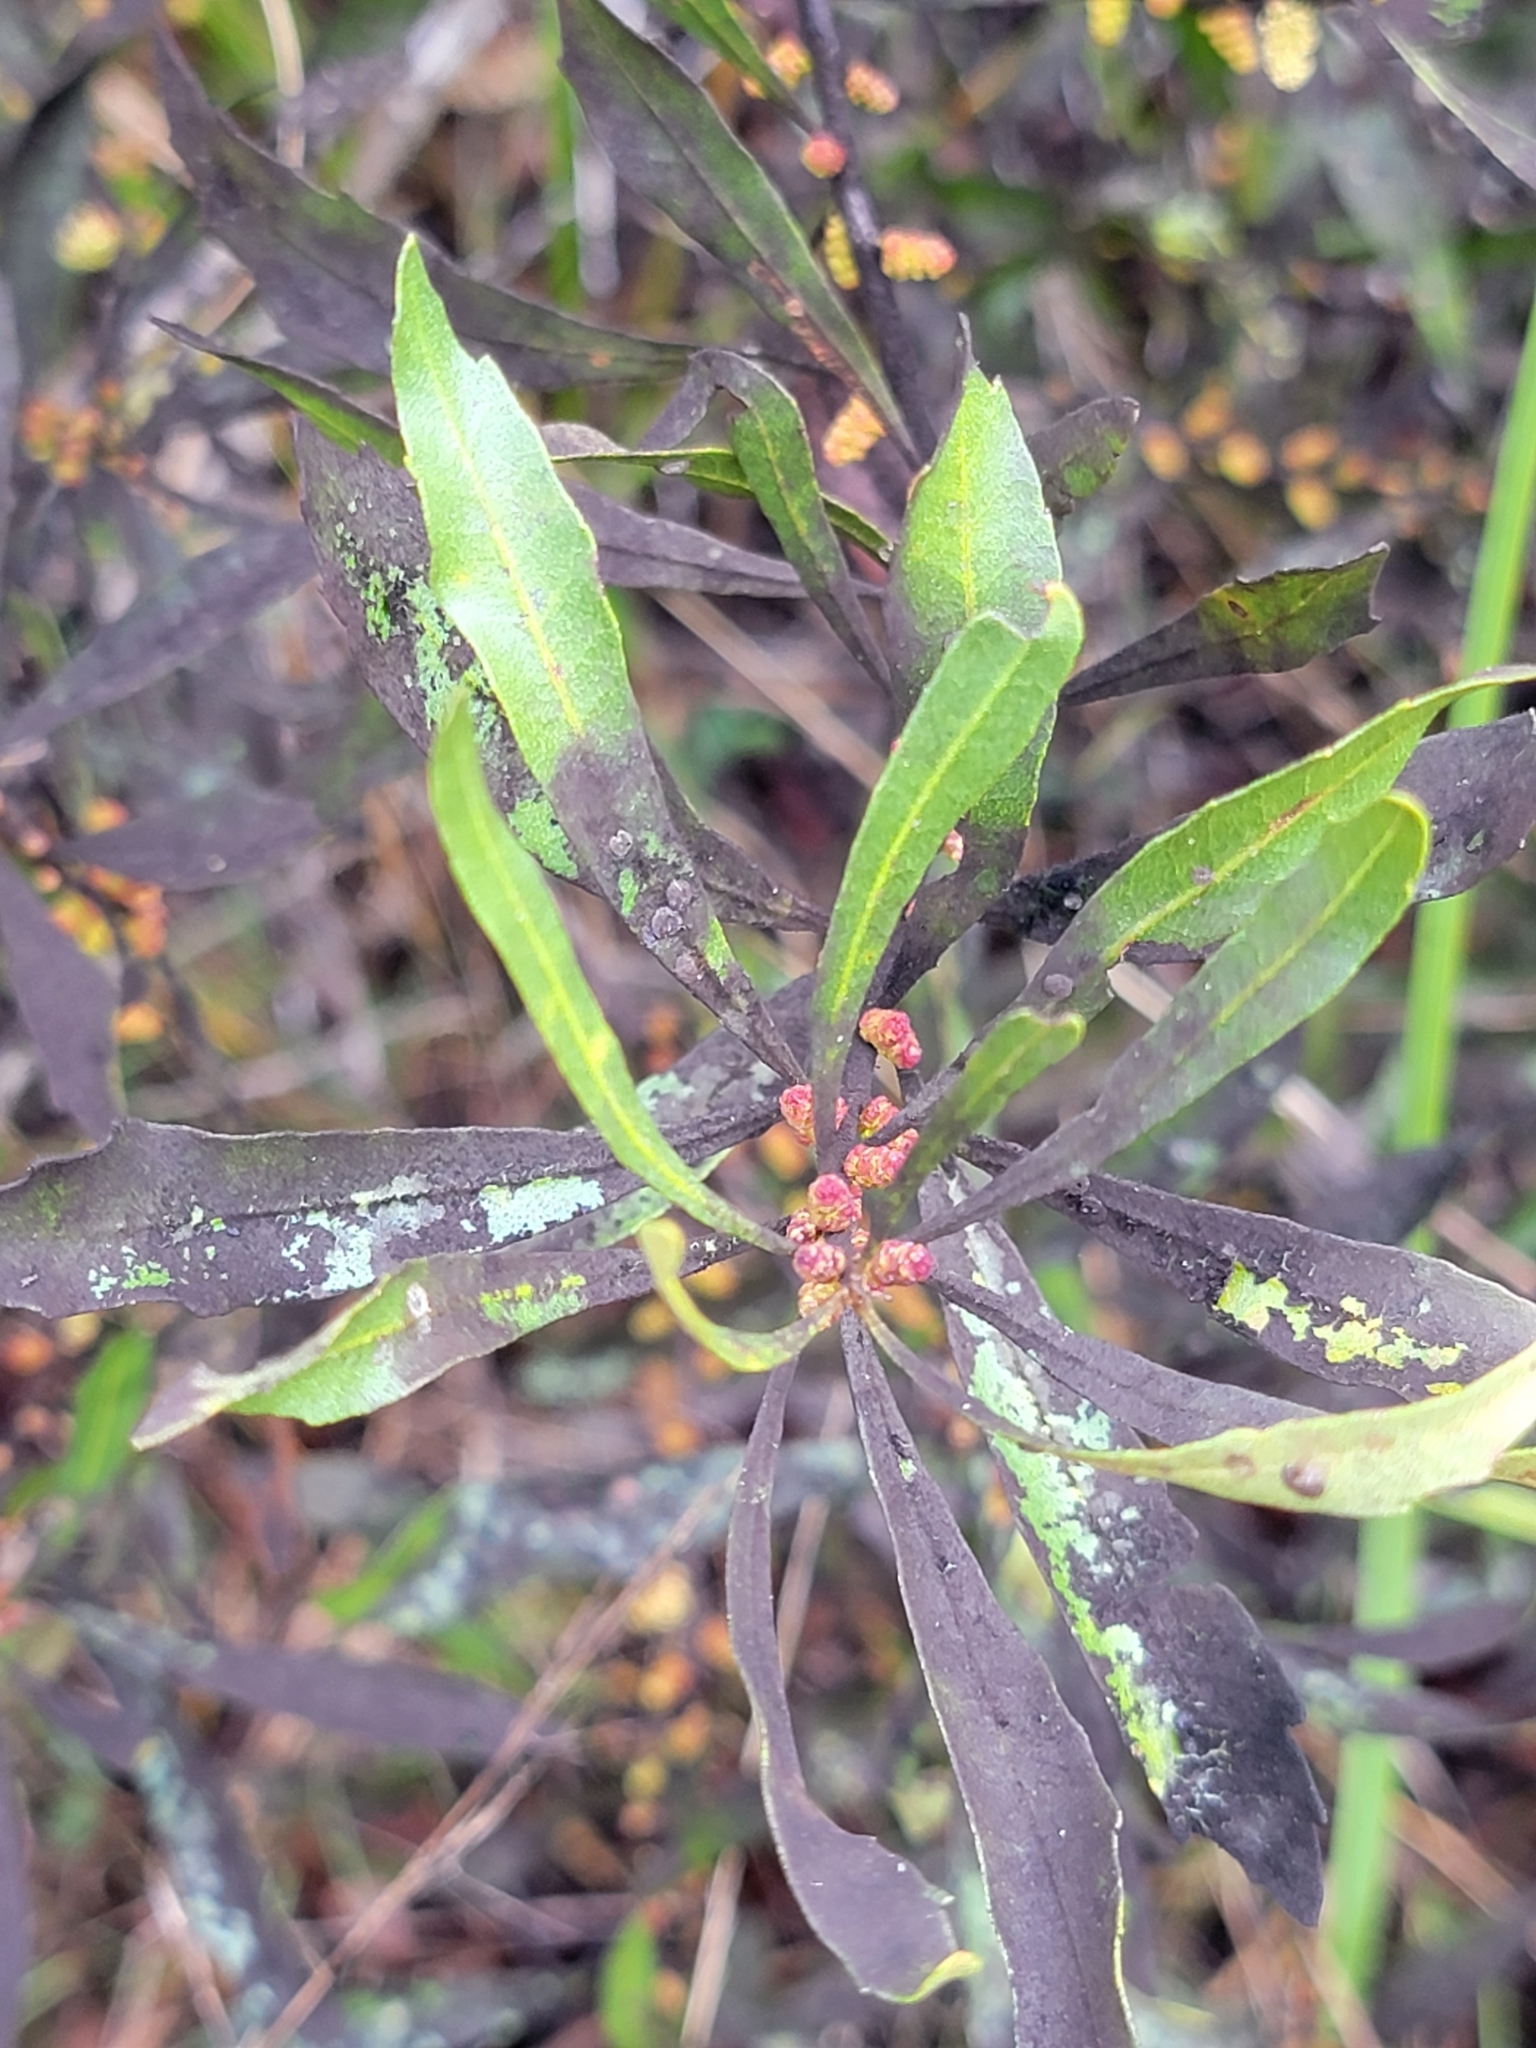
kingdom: Plantae
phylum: Tracheophyta
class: Magnoliopsida
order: Fagales
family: Myricaceae
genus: Morella
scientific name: Morella cerifera
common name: Wax myrtle
